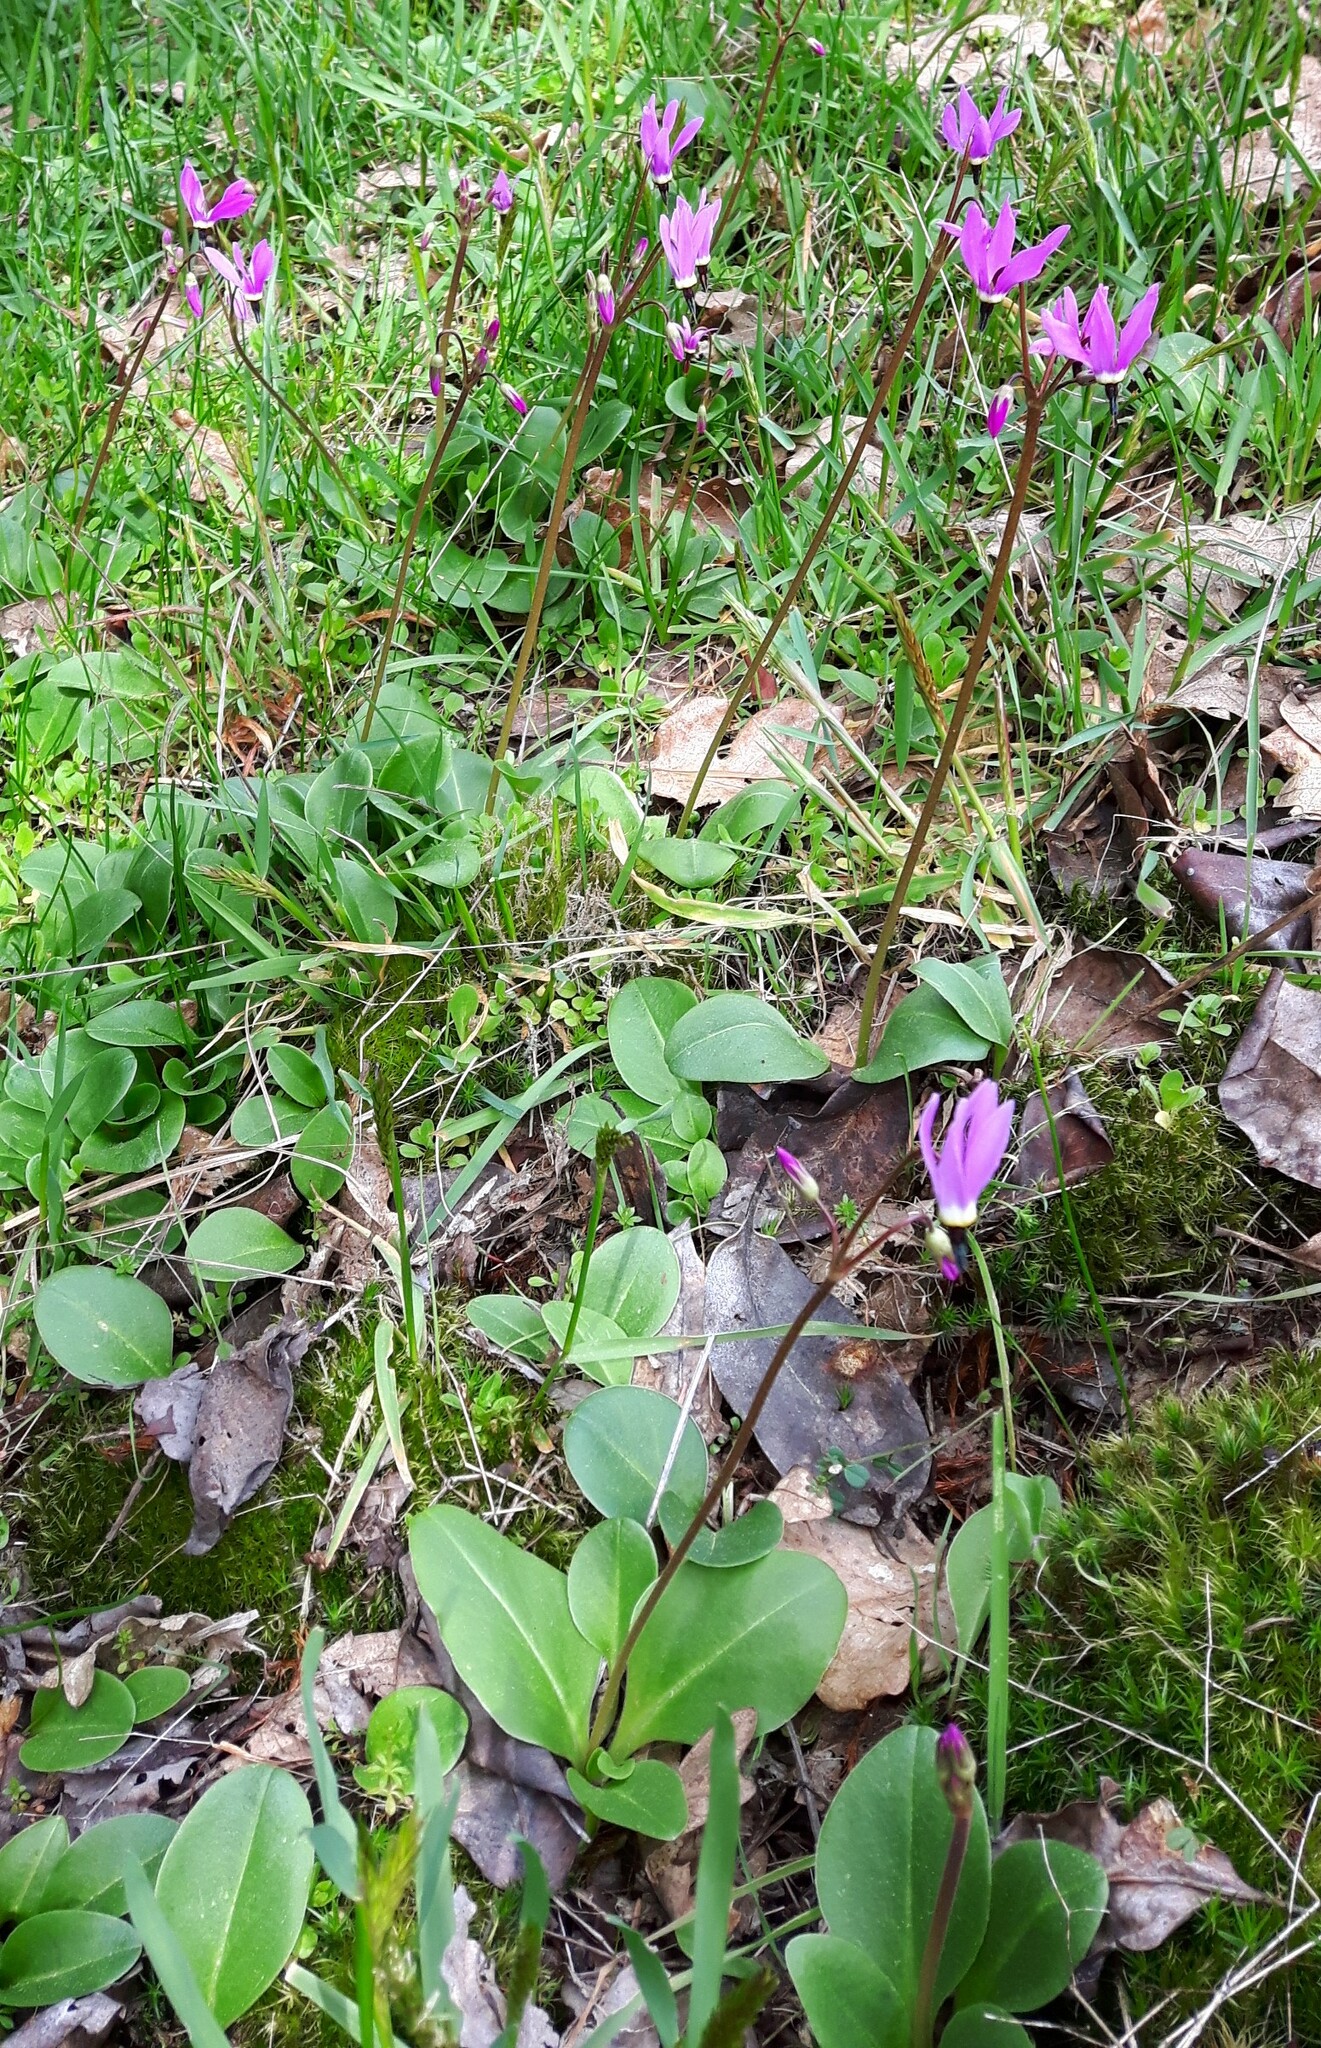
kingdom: Plantae
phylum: Tracheophyta
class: Magnoliopsida
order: Ericales
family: Primulaceae
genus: Dodecatheon
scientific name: Dodecatheon hendersonii
